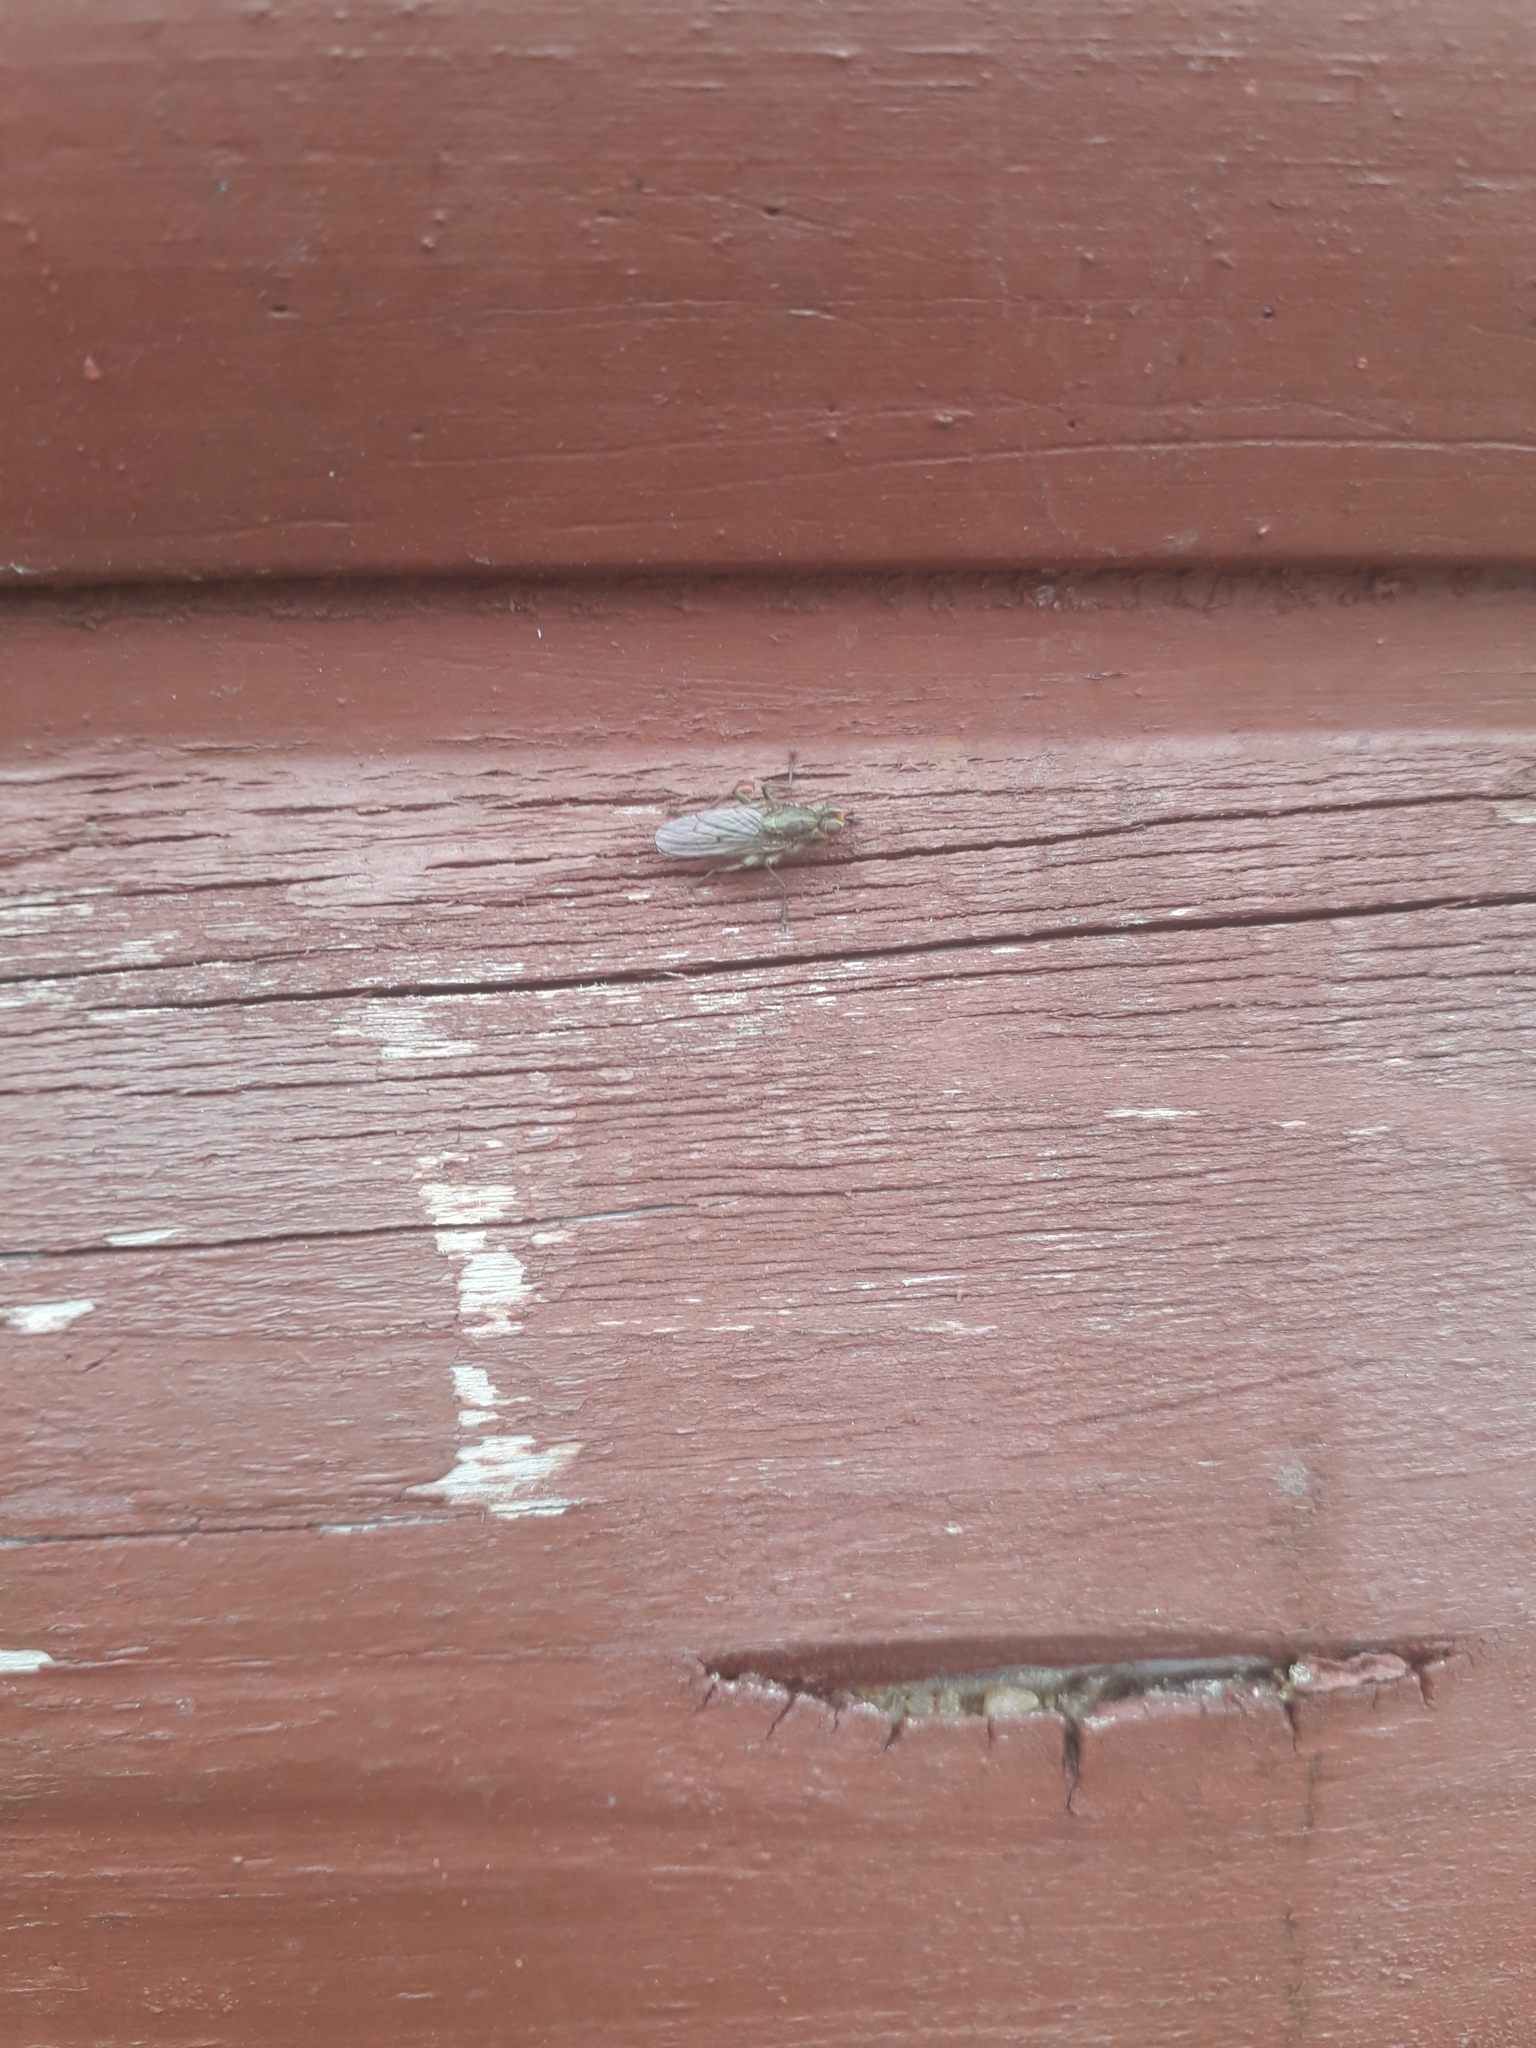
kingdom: Animalia
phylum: Arthropoda
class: Insecta
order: Diptera
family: Scathophagidae
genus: Scathophaga
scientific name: Scathophaga stercoraria
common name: Yellow dung fly
